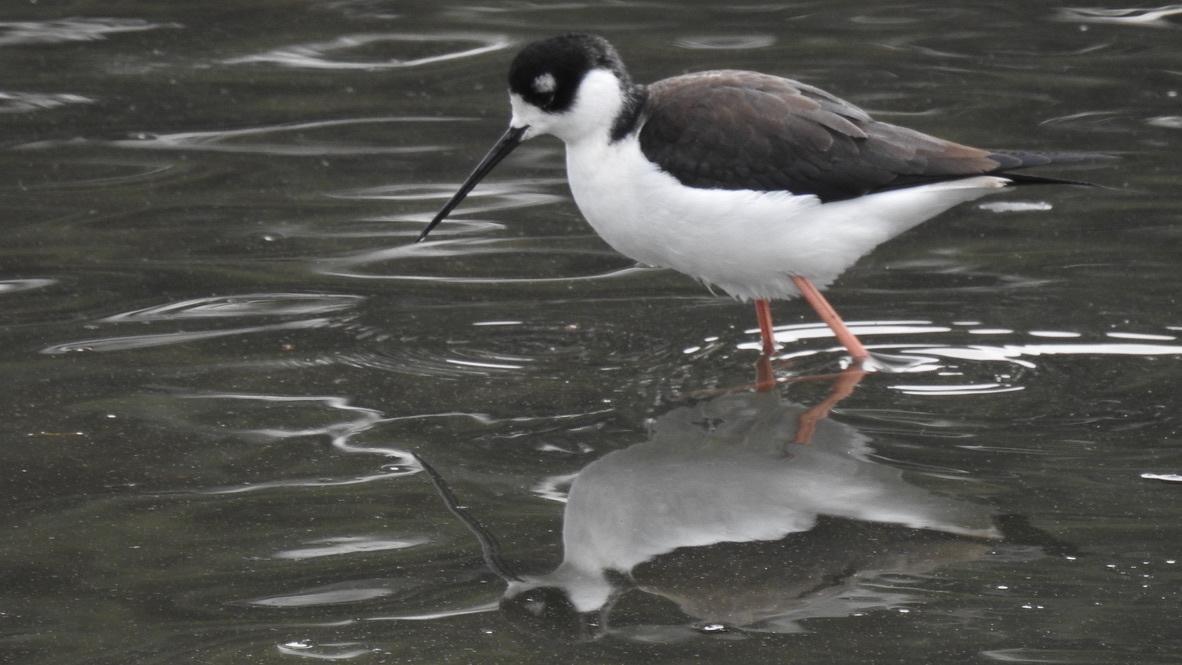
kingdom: Animalia
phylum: Chordata
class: Aves
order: Charadriiformes
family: Recurvirostridae
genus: Himantopus
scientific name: Himantopus mexicanus
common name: Black-necked stilt
